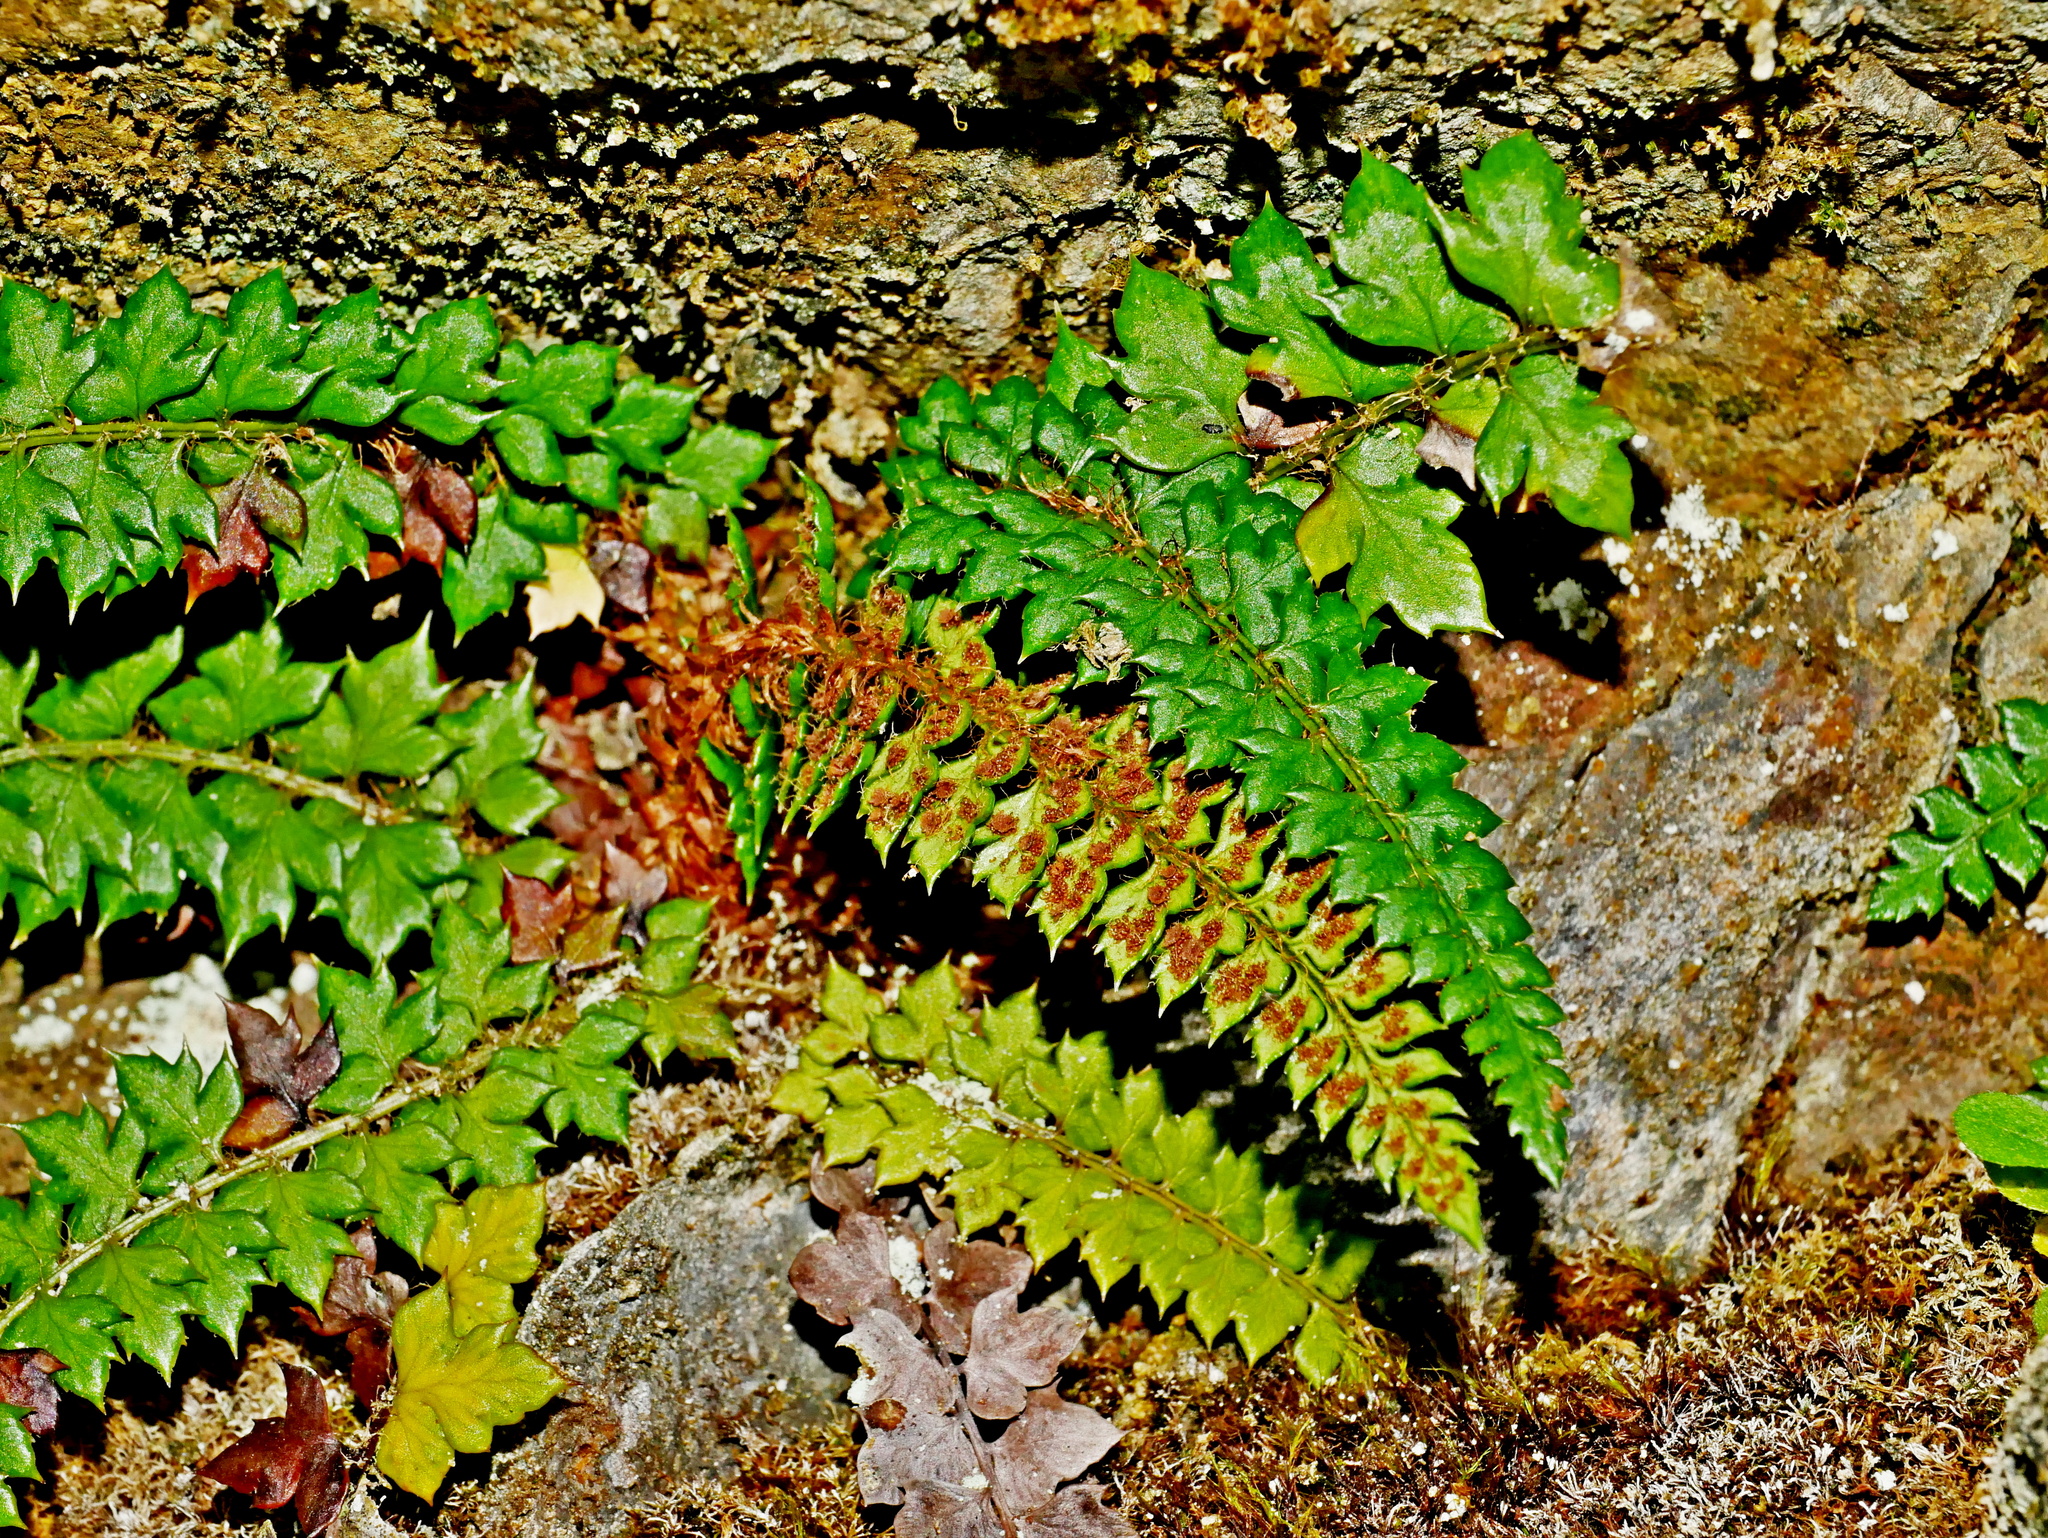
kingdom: Plantae
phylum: Tracheophyta
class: Polypodiopsida
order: Polypodiales
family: Dryopteridaceae
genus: Polystichum
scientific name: Polystichum acanthophyllum
